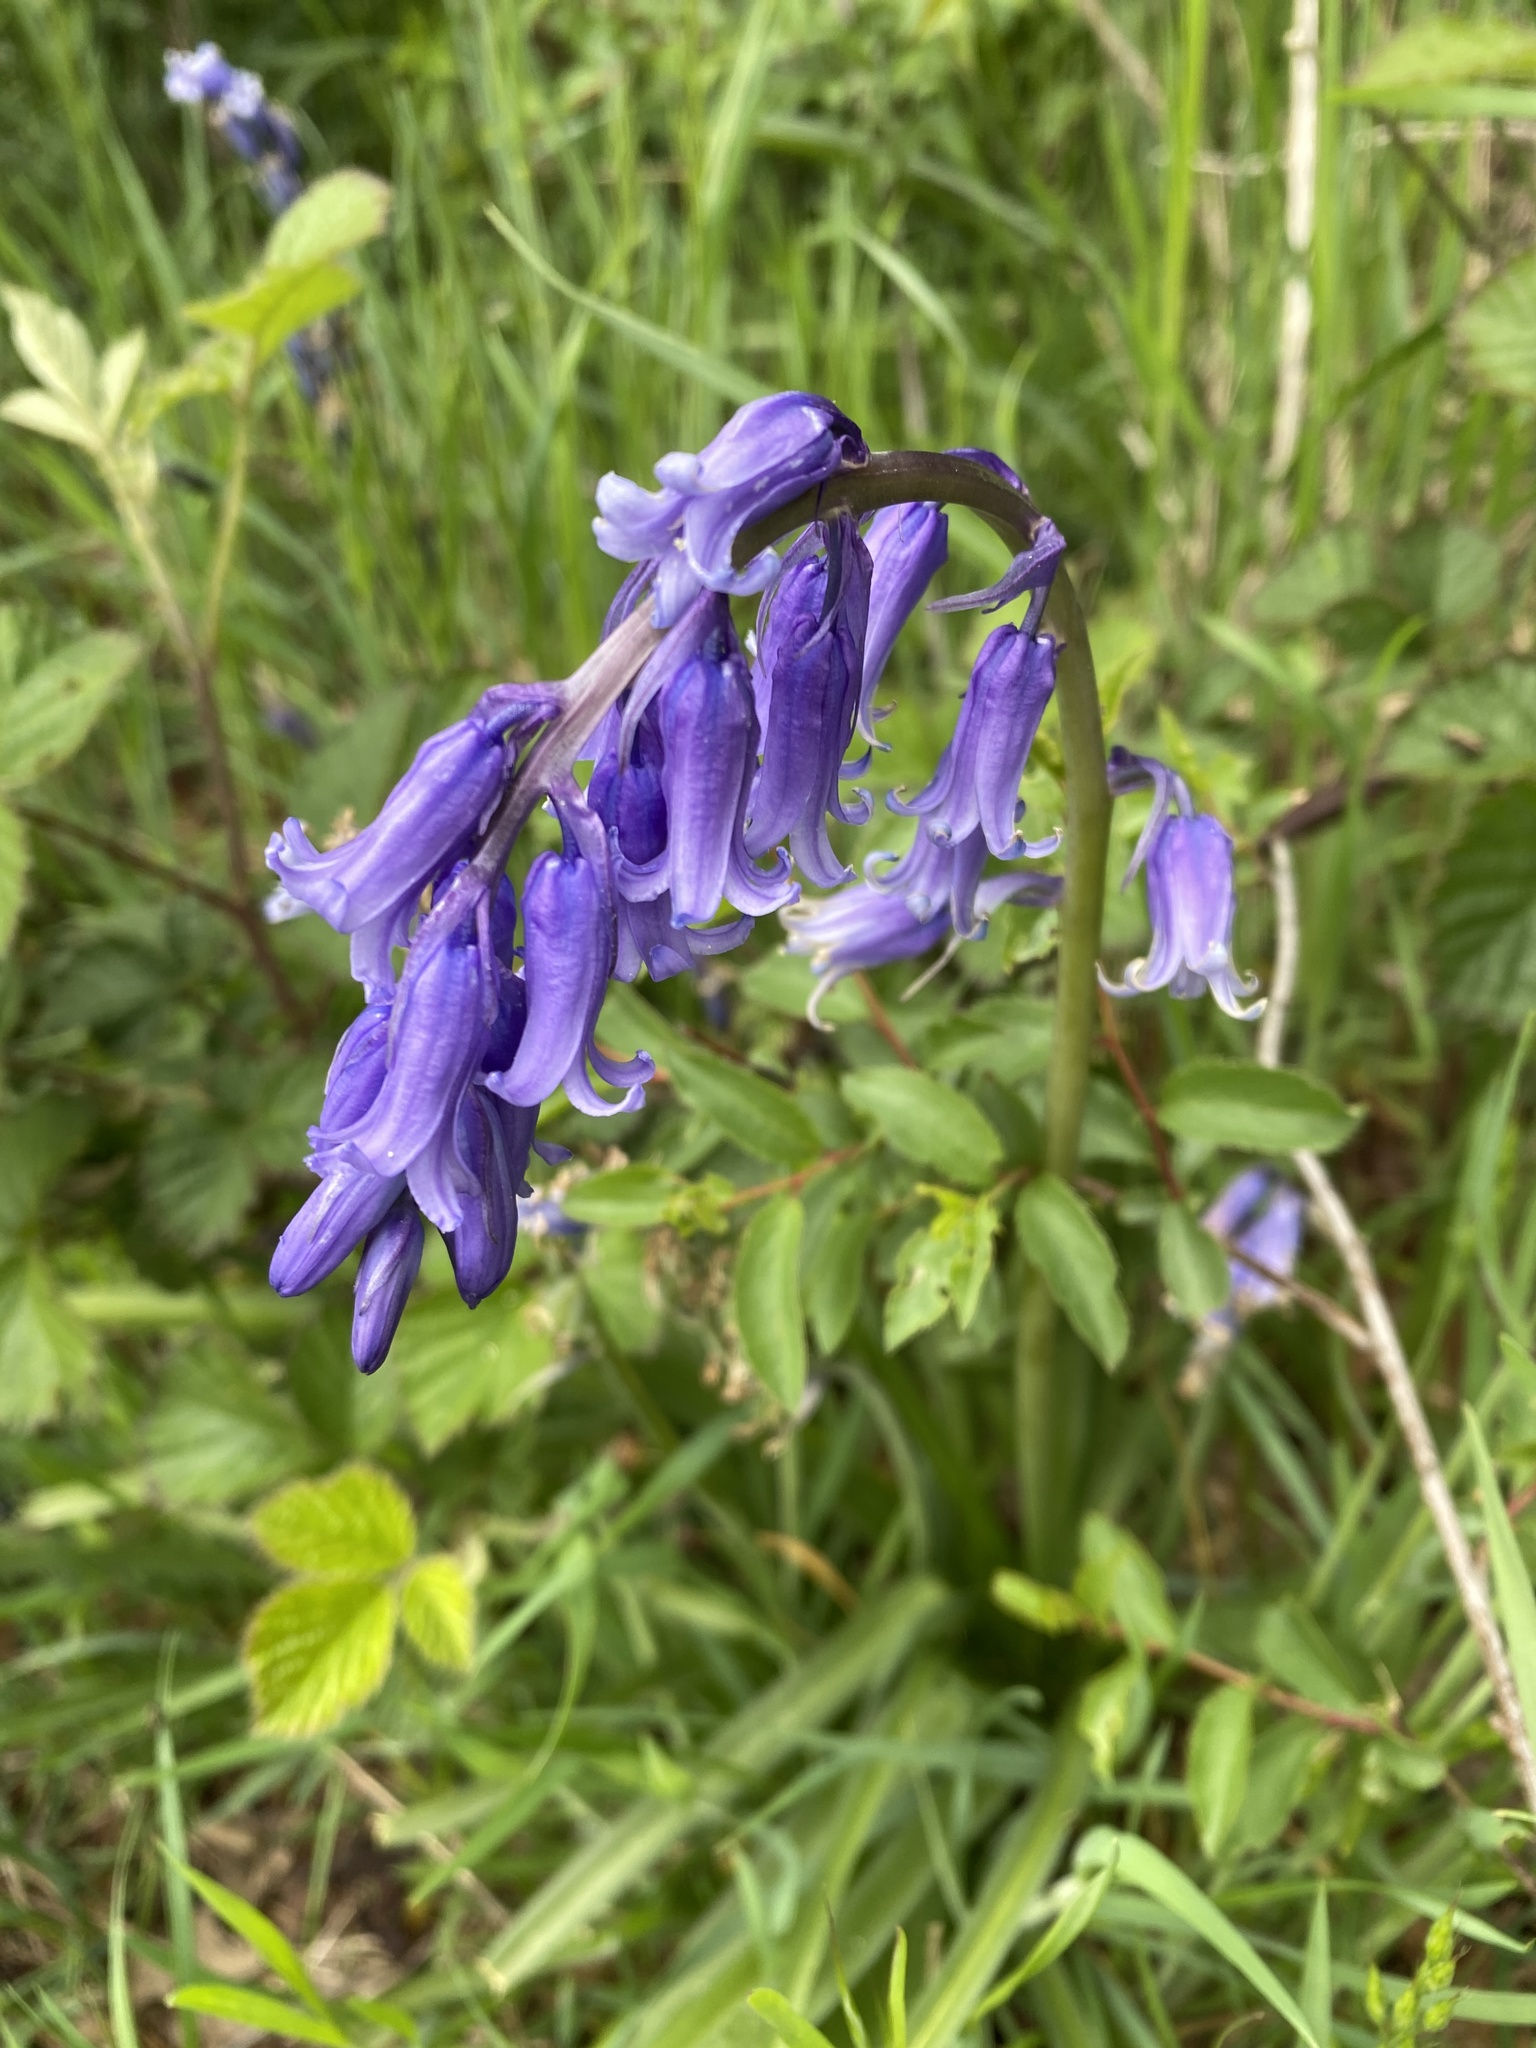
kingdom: Plantae
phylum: Tracheophyta
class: Liliopsida
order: Asparagales
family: Asparagaceae
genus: Hyacinthoides
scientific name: Hyacinthoides non-scripta
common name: Bluebell
